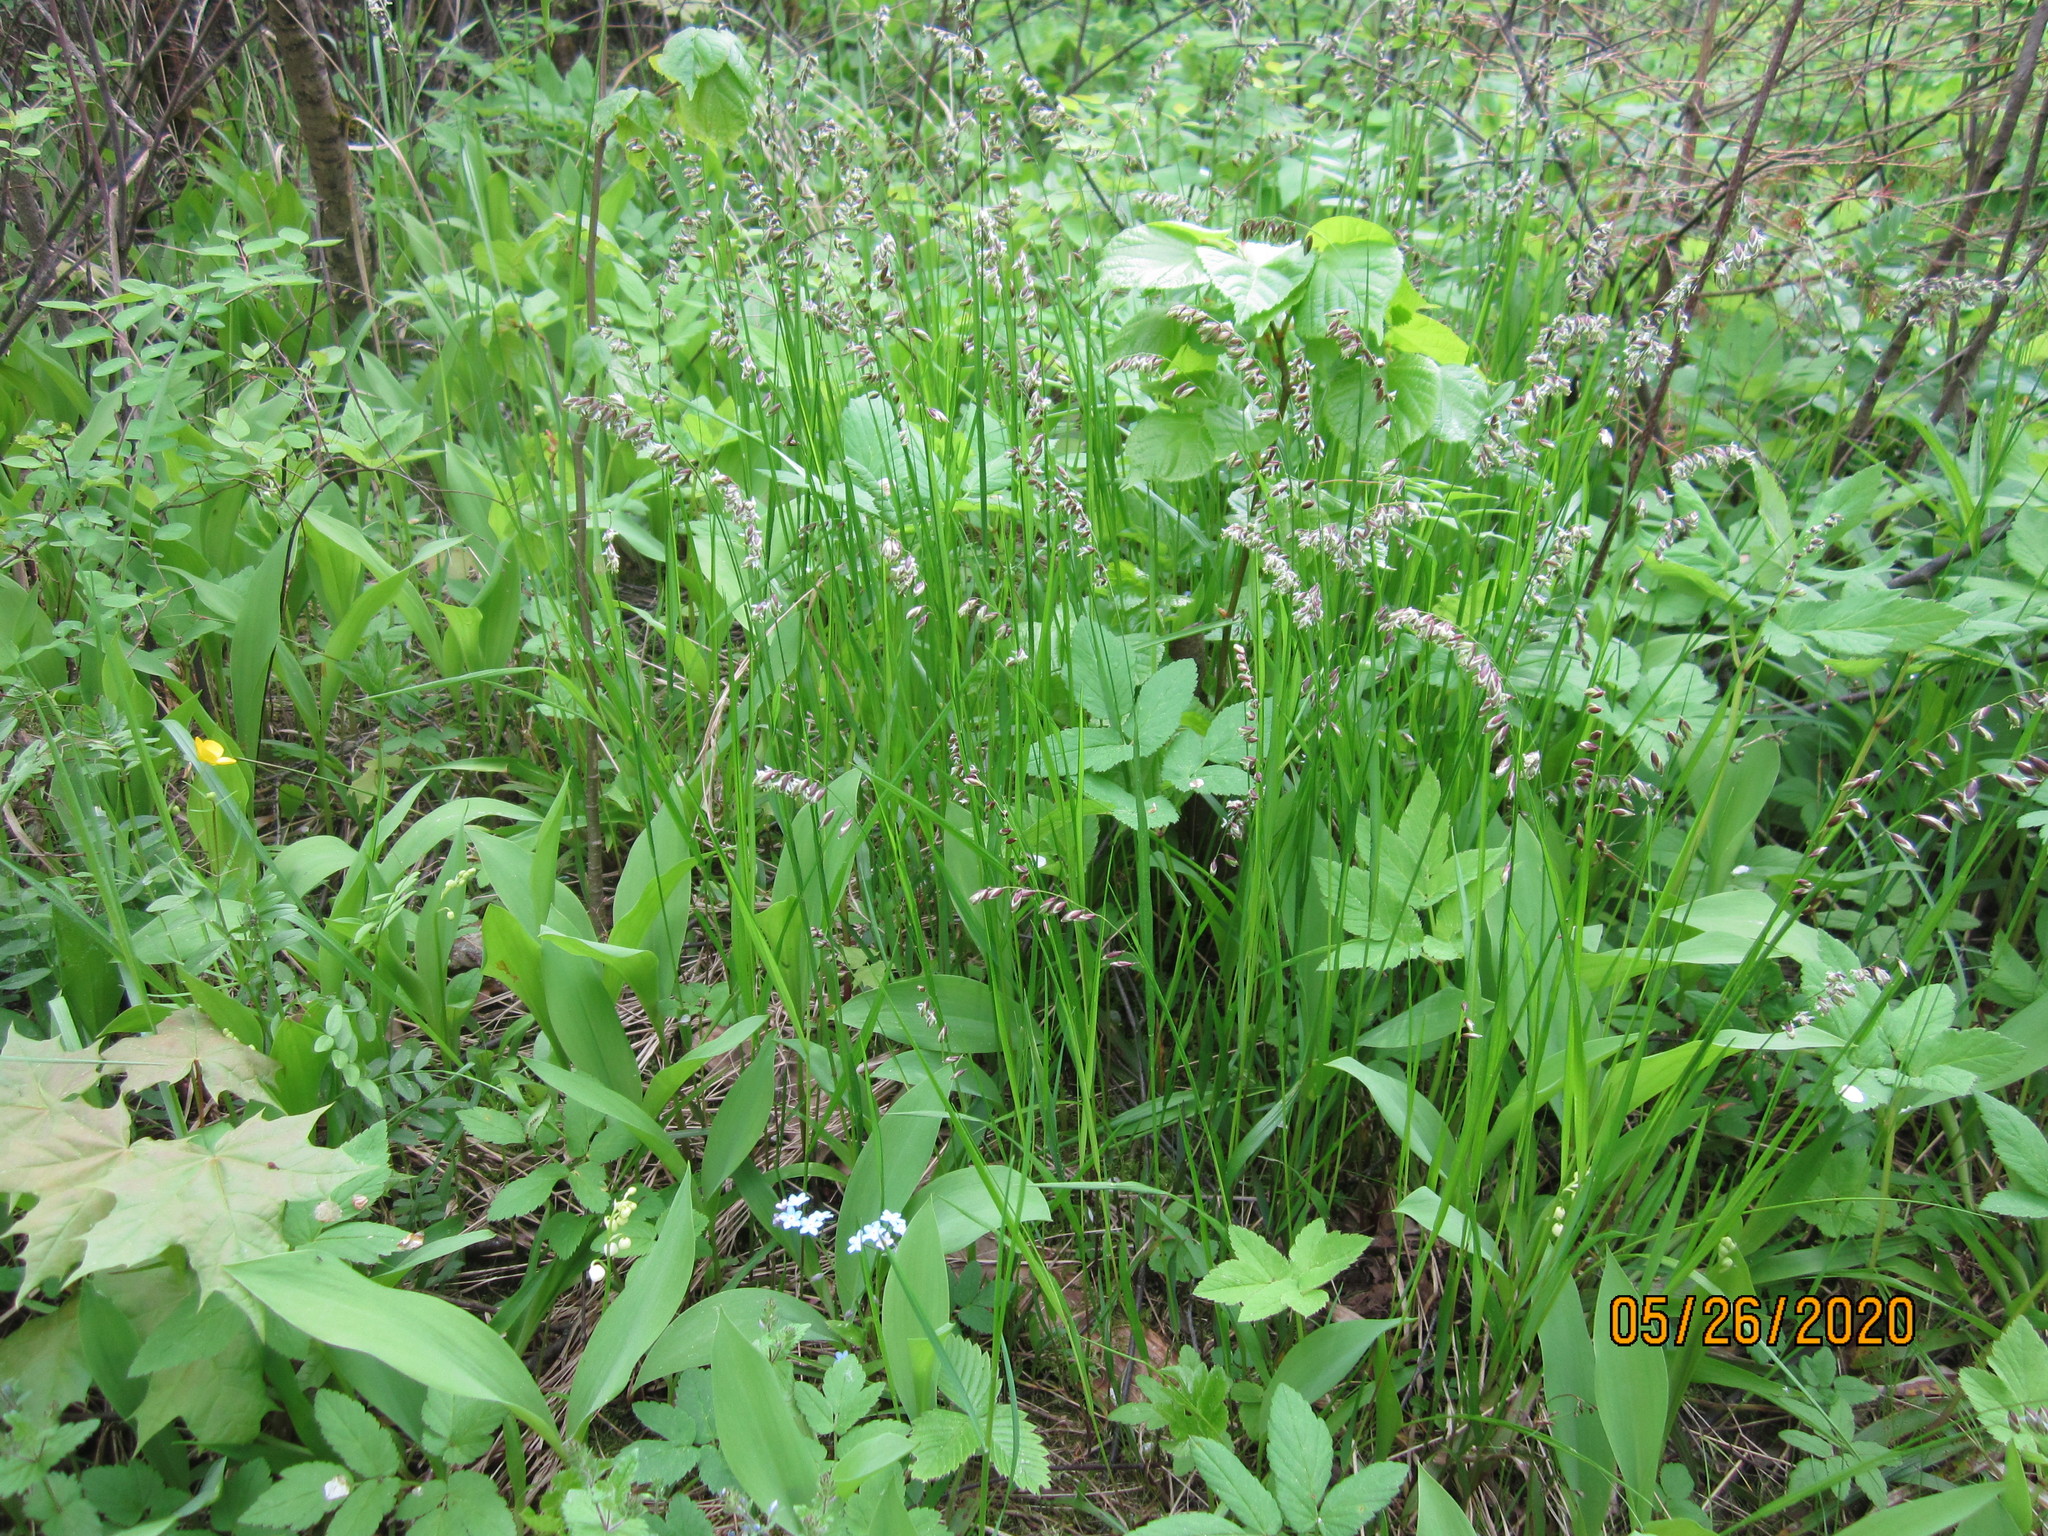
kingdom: Plantae
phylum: Tracheophyta
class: Liliopsida
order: Poales
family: Poaceae
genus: Melica
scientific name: Melica nutans
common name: Mountain melick
